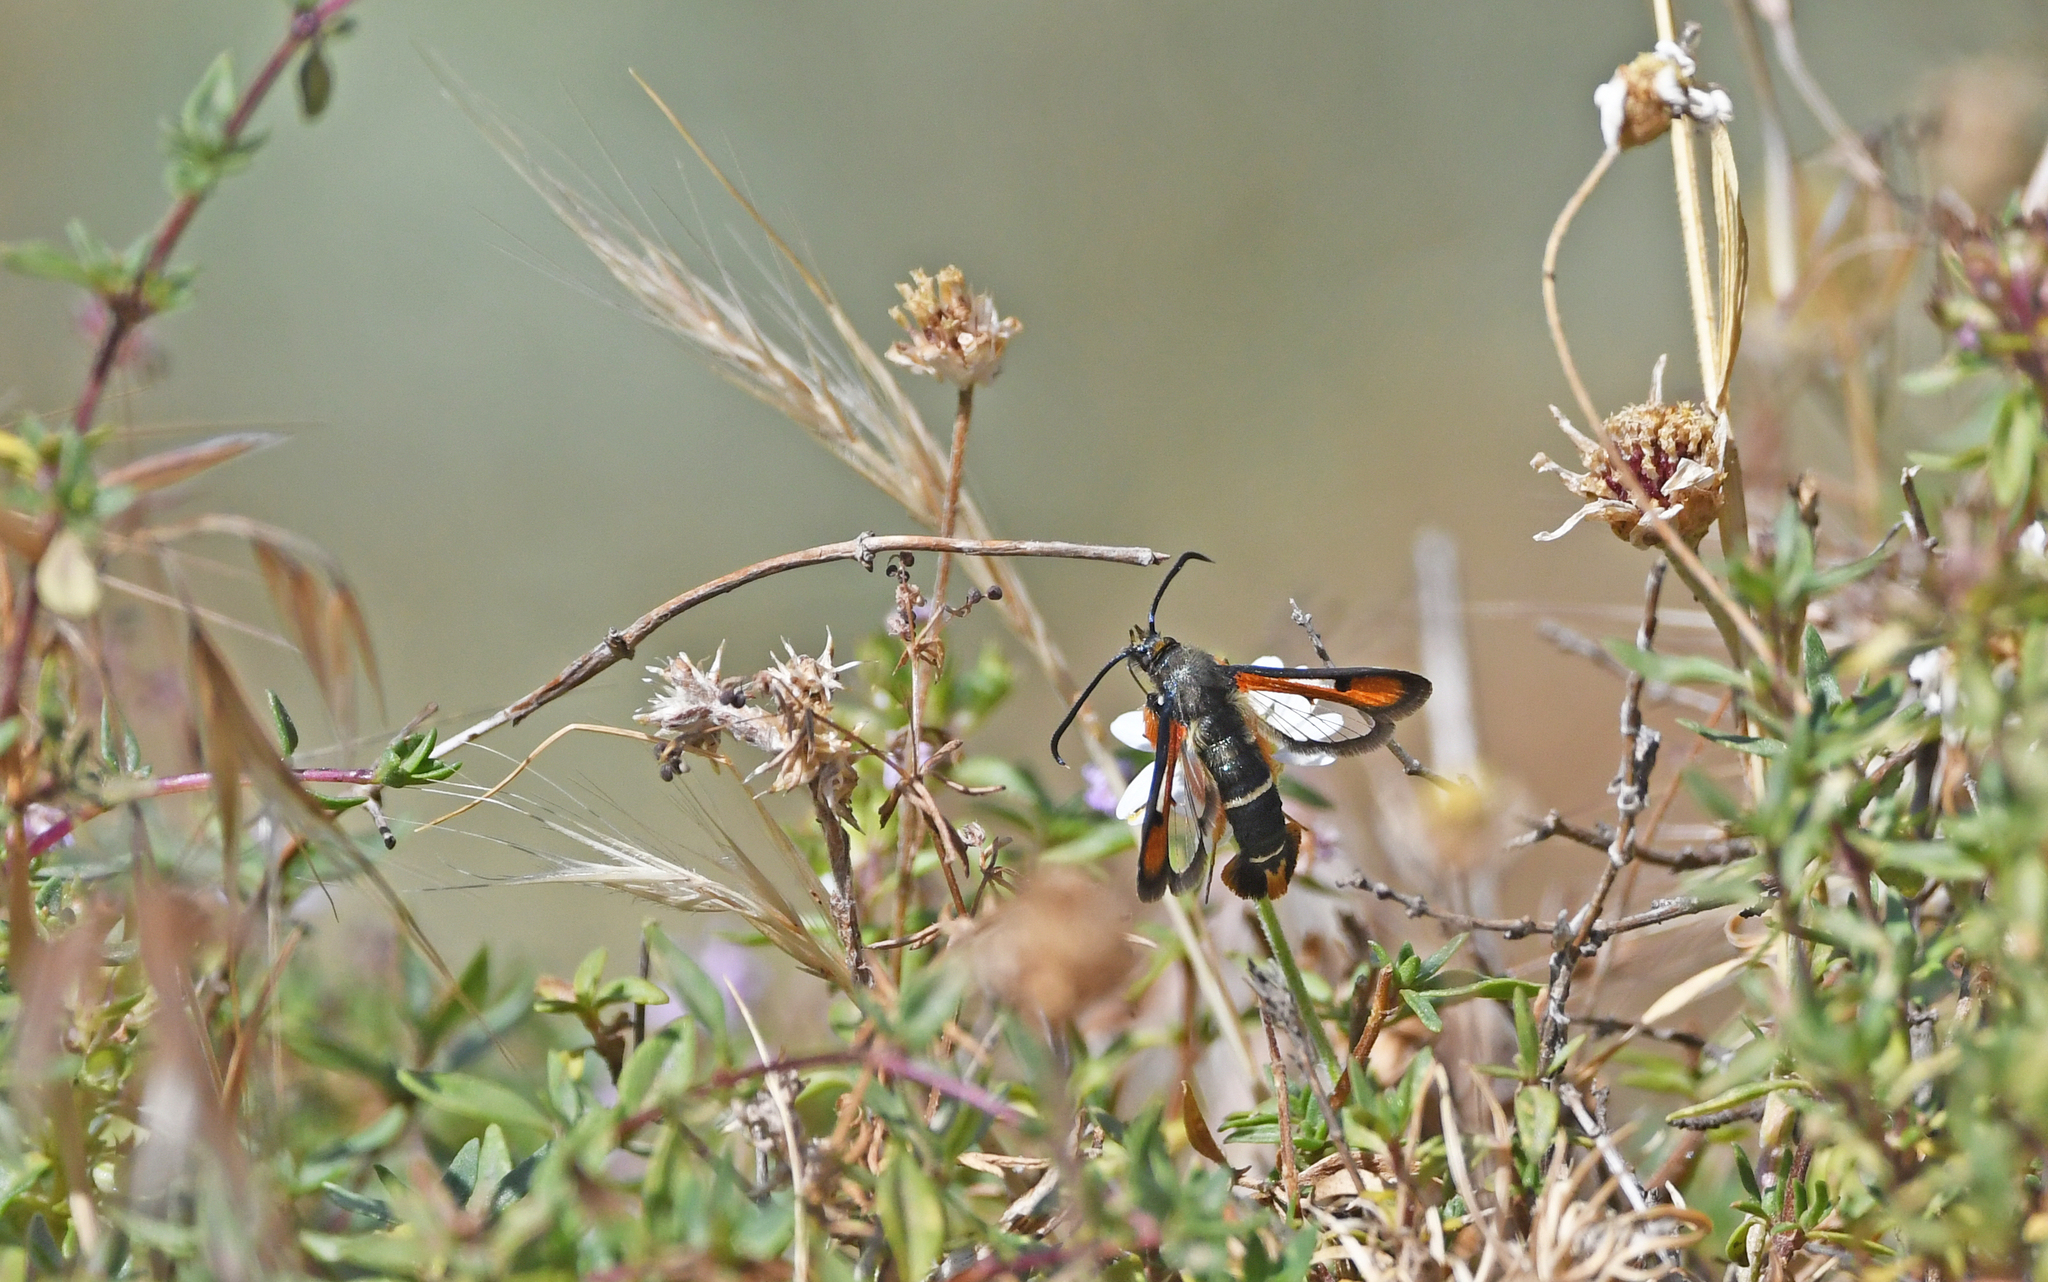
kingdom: Animalia
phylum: Arthropoda
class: Insecta
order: Lepidoptera
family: Sesiidae
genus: Pyropteron
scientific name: Pyropteron chrysidiforme
